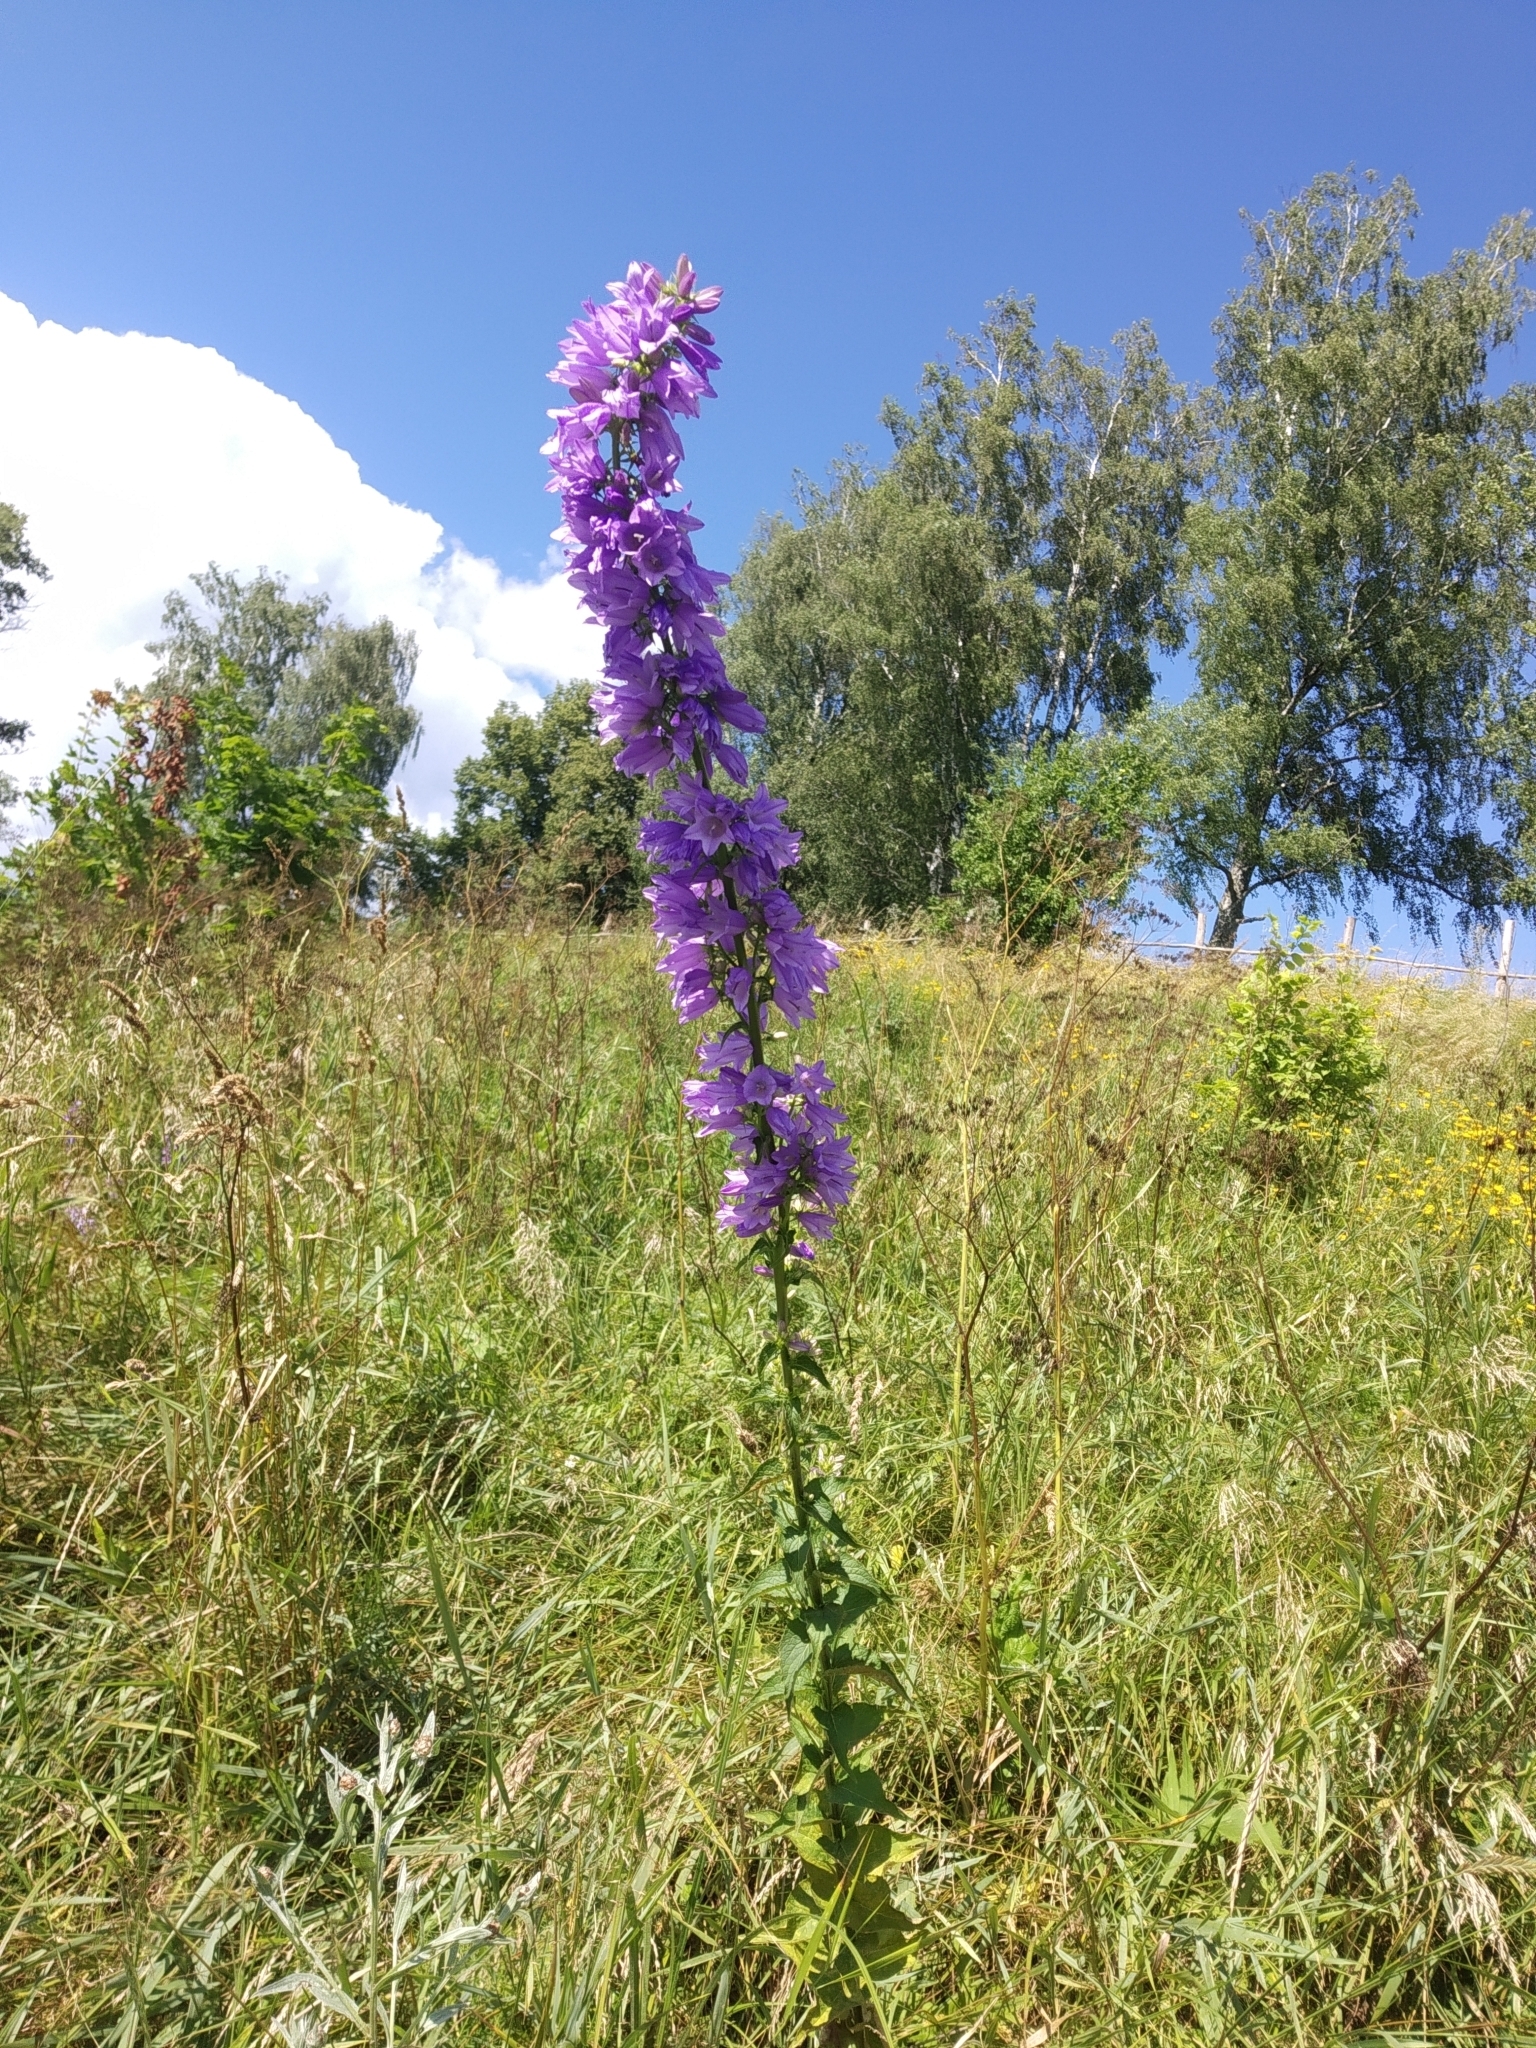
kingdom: Plantae
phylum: Tracheophyta
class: Magnoliopsida
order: Asterales
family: Campanulaceae
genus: Campanula
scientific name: Campanula bononiensis
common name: Pale bellflower
